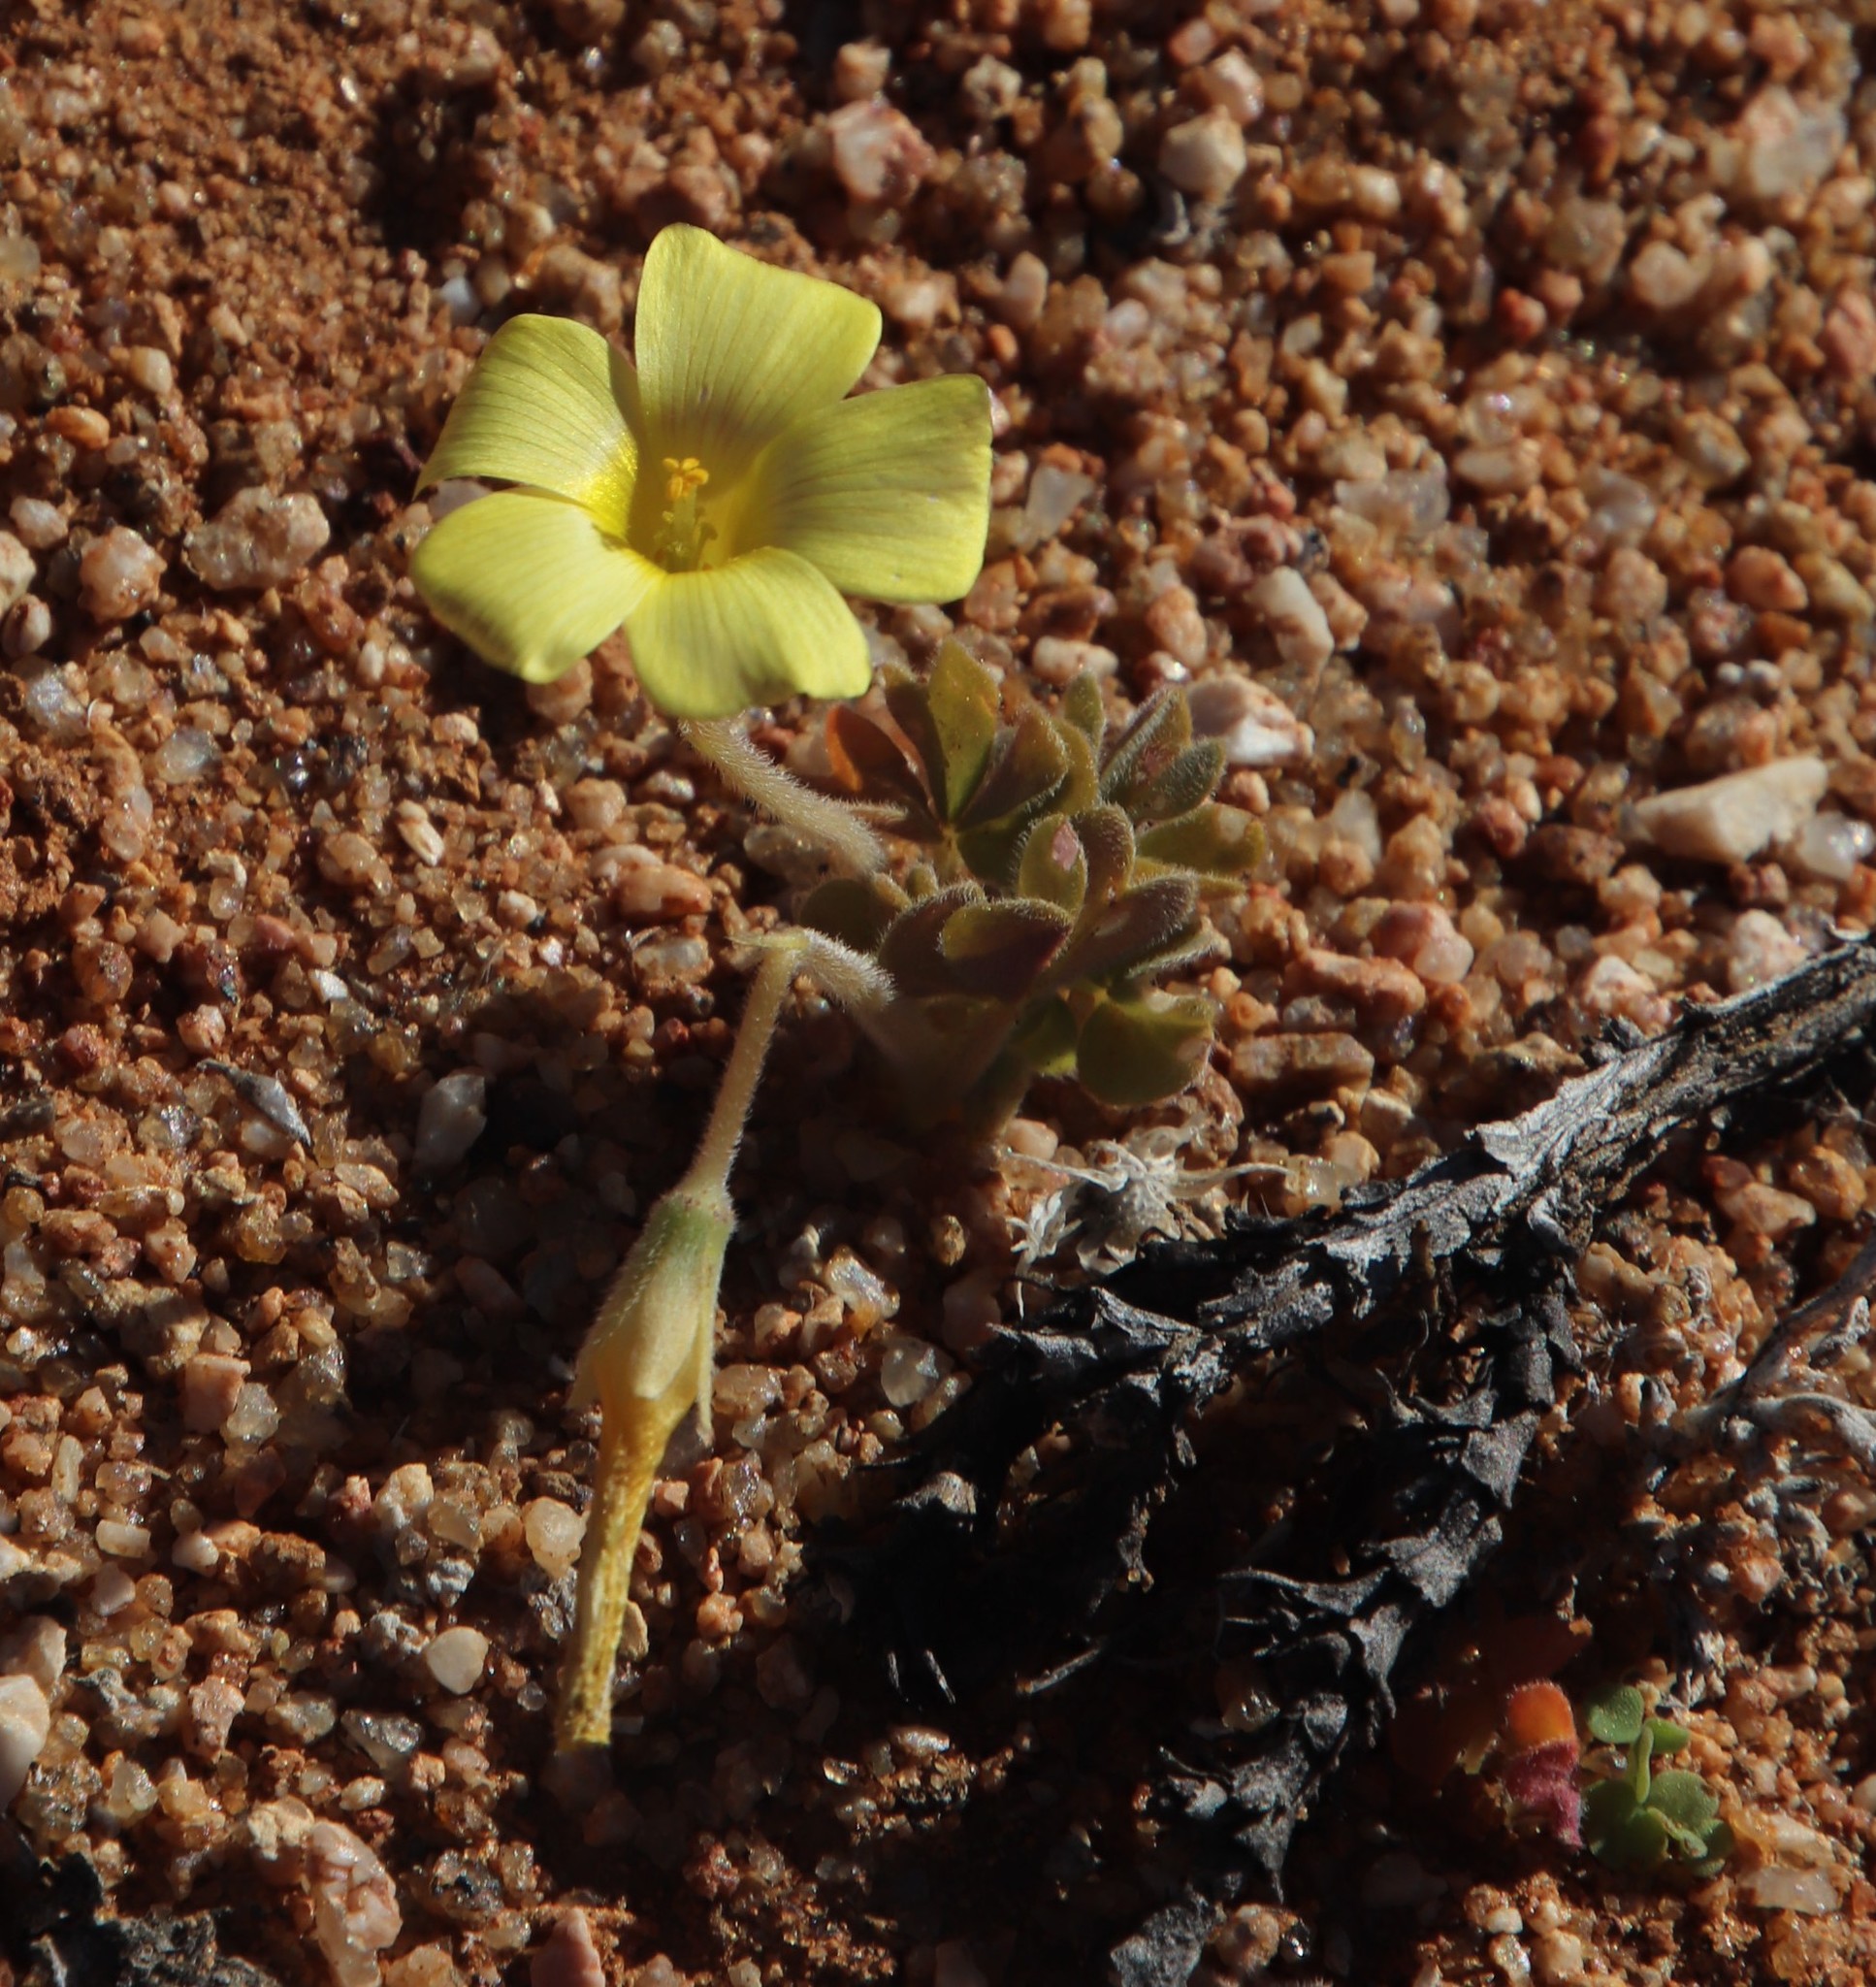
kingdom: Plantae
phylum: Tracheophyta
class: Magnoliopsida
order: Oxalidales
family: Oxalidaceae
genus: Oxalis
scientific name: Oxalis obtusa
